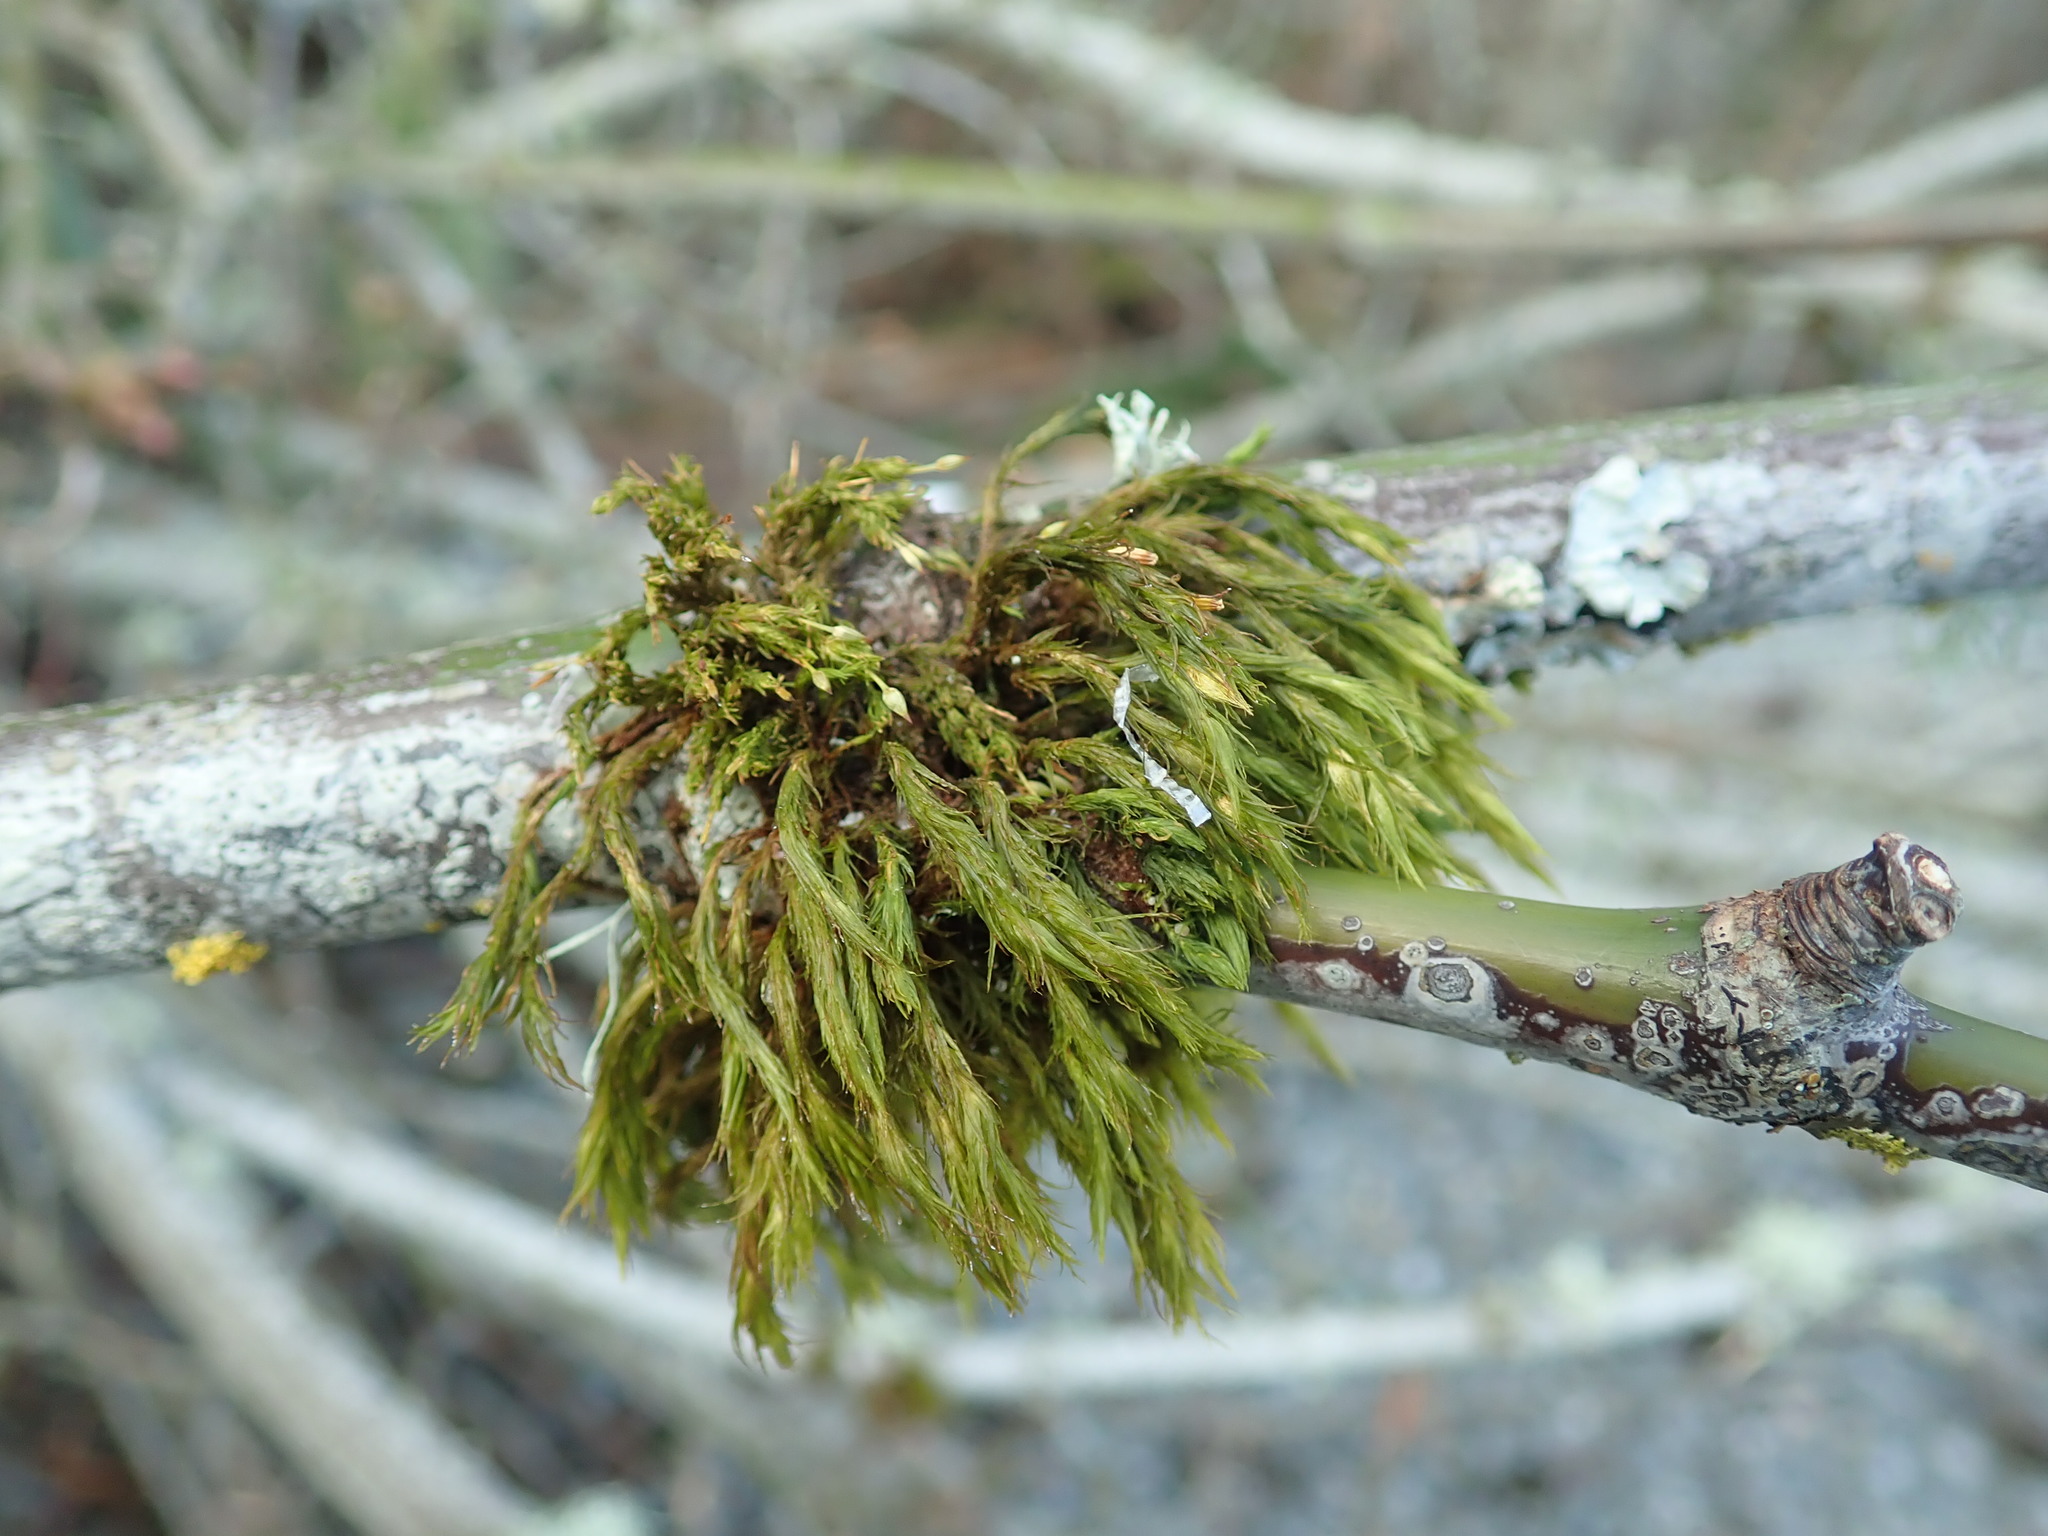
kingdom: Plantae
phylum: Bryophyta
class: Bryopsida
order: Orthotrichales
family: Orthotrichaceae
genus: Pulvigera
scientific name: Pulvigera papillosa
